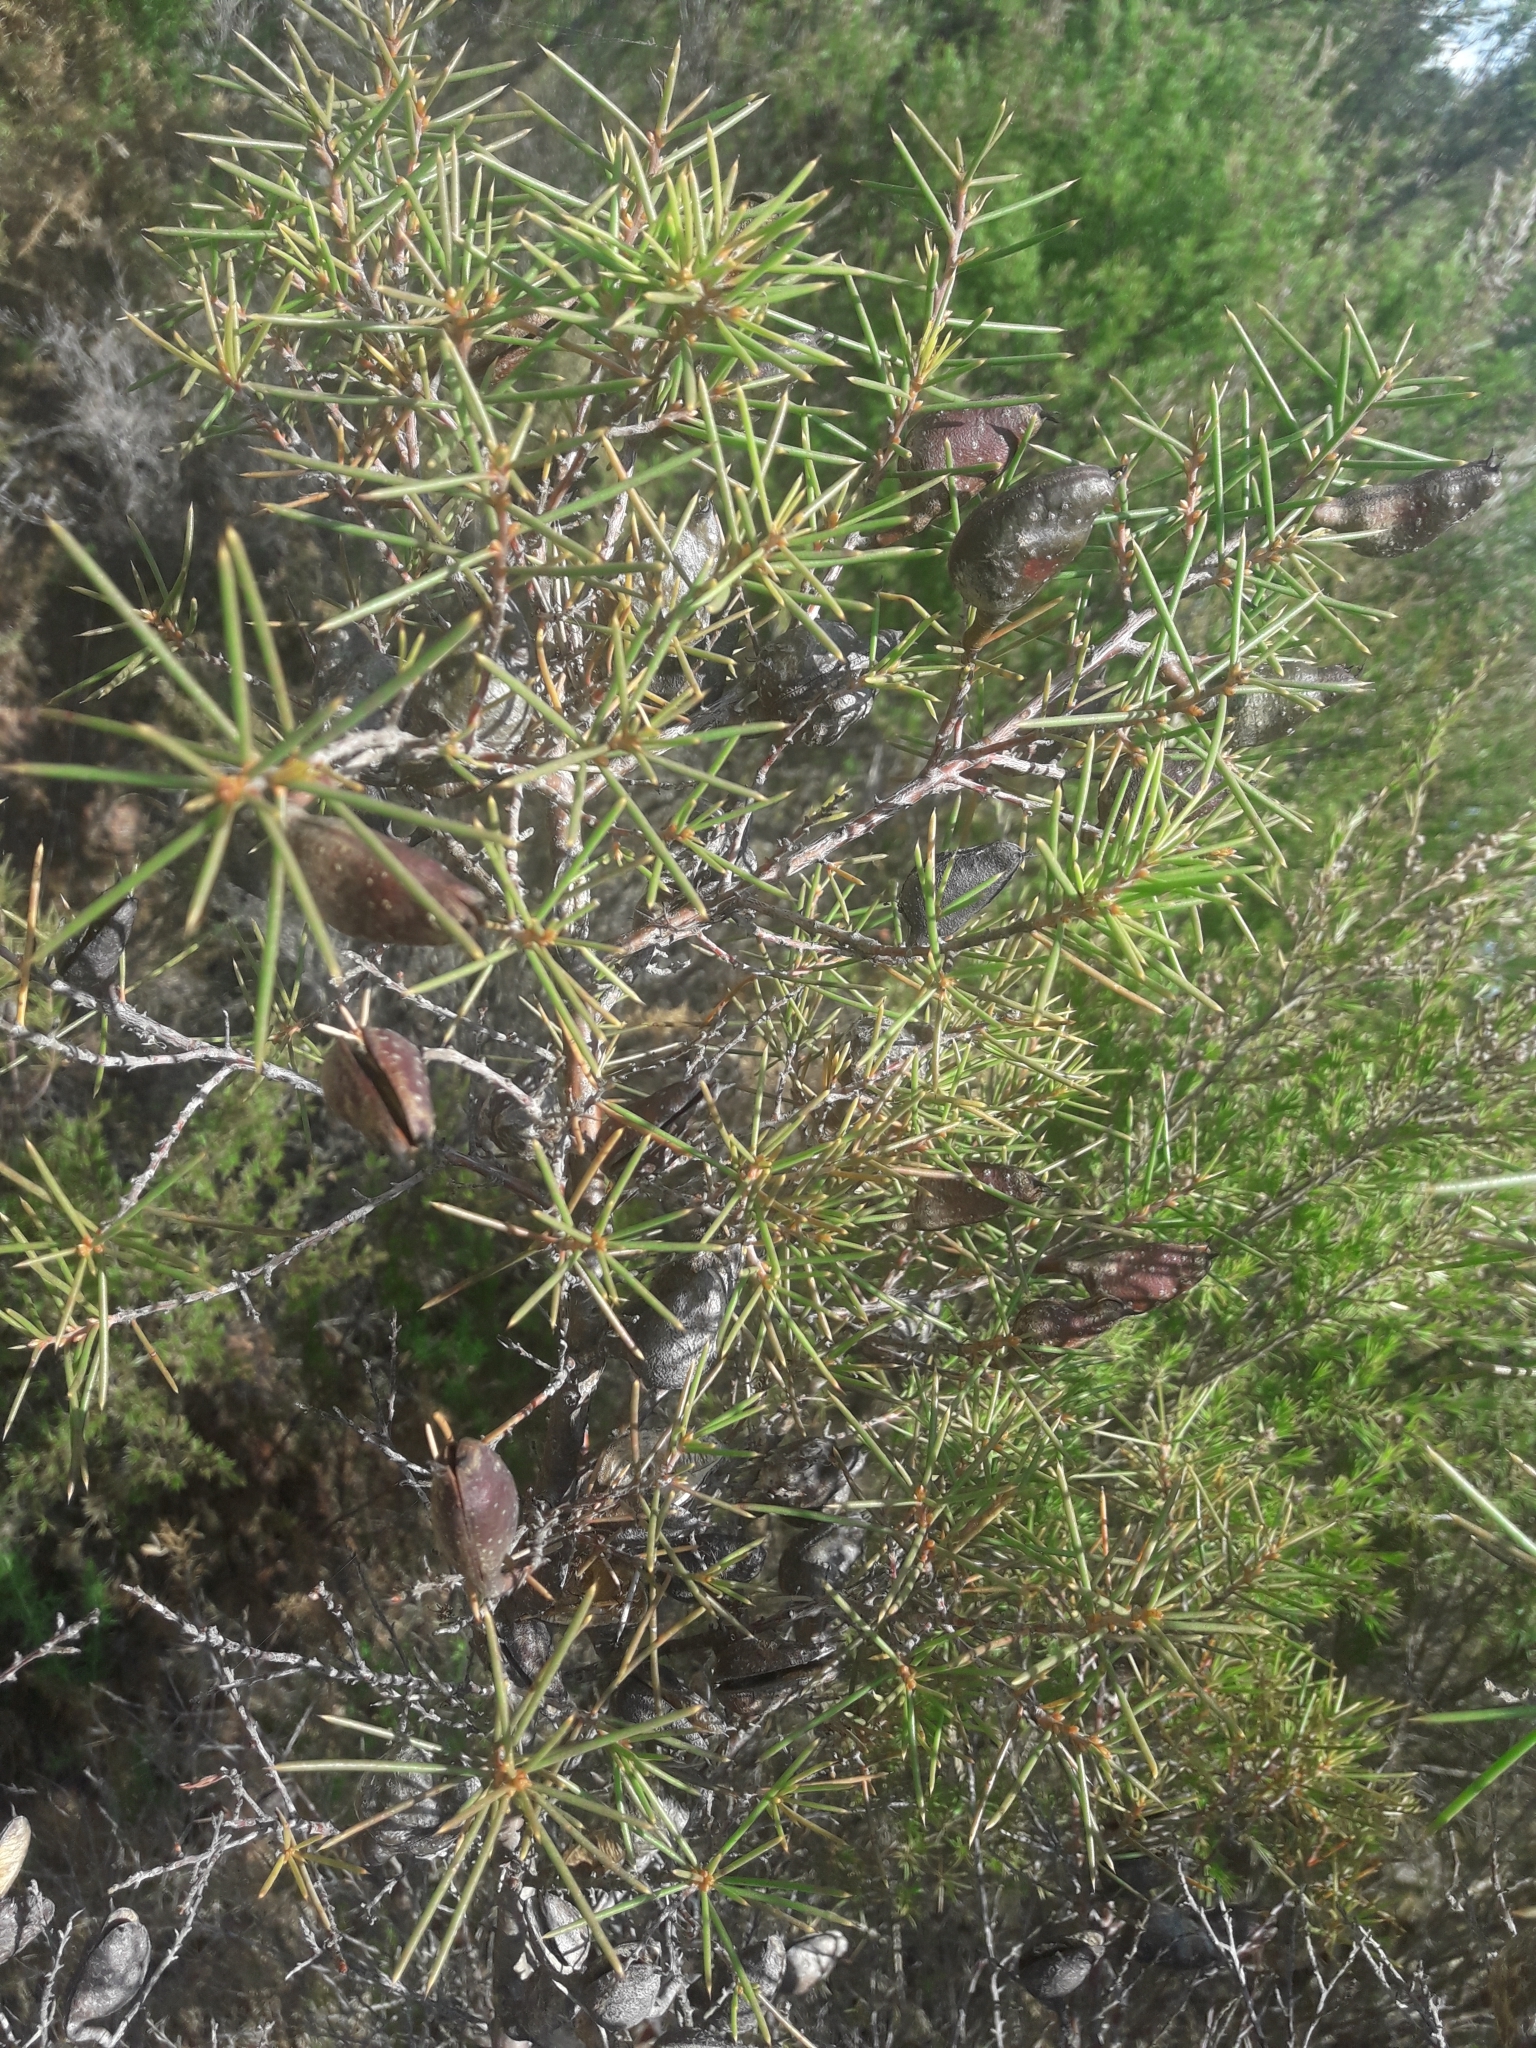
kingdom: Plantae
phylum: Tracheophyta
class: Magnoliopsida
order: Proteales
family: Proteaceae
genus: Hakea
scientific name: Hakea sericea
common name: Needle bush
